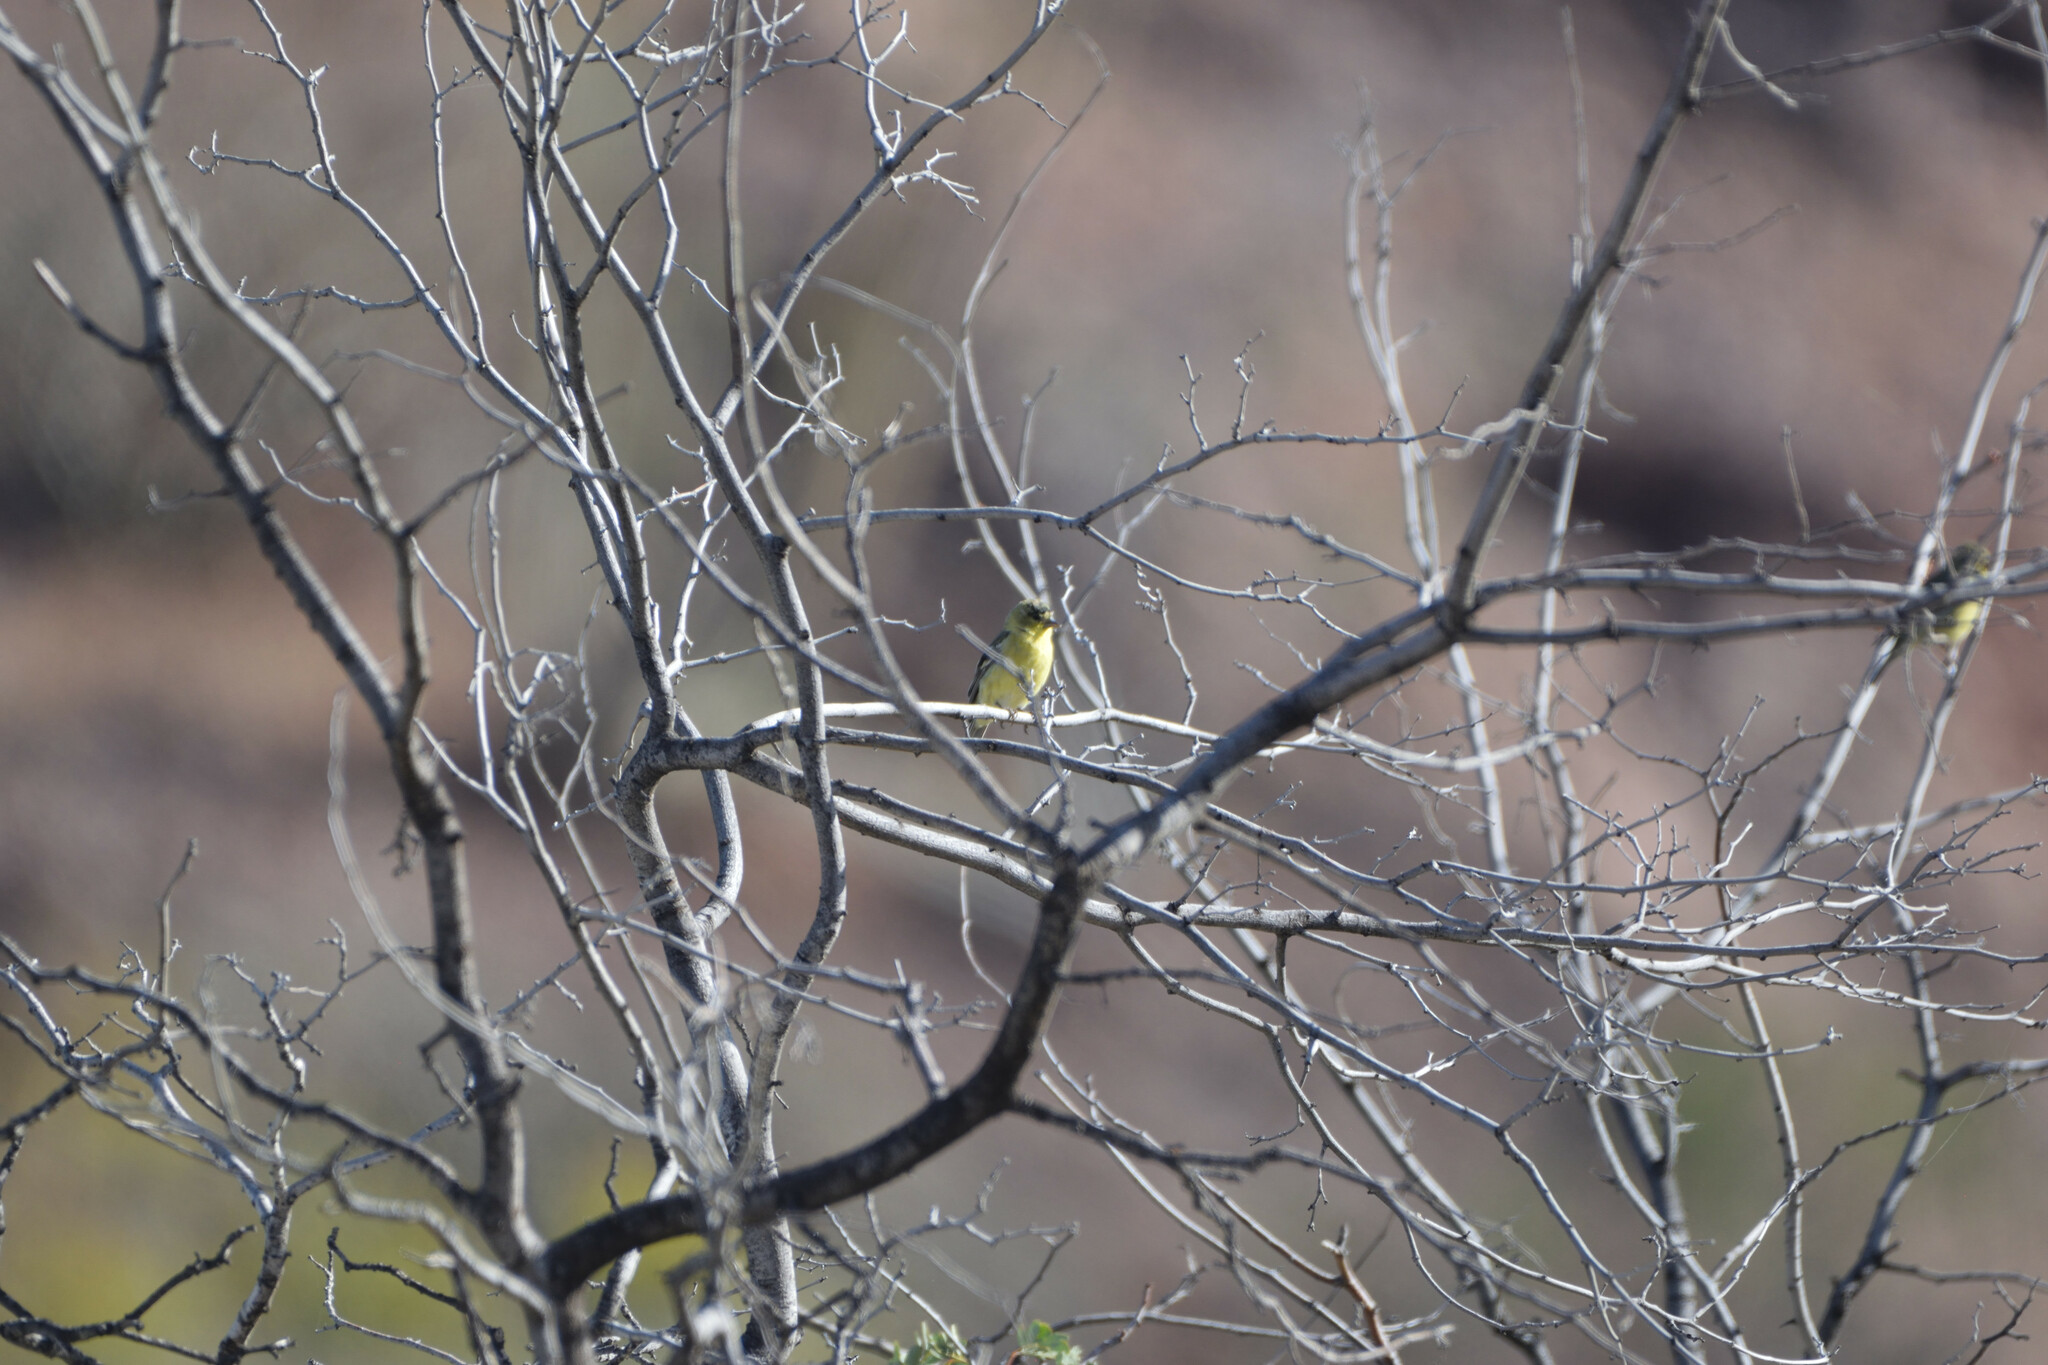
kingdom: Animalia
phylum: Chordata
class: Aves
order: Passeriformes
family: Fringillidae
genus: Spinus
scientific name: Spinus psaltria
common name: Lesser goldfinch
